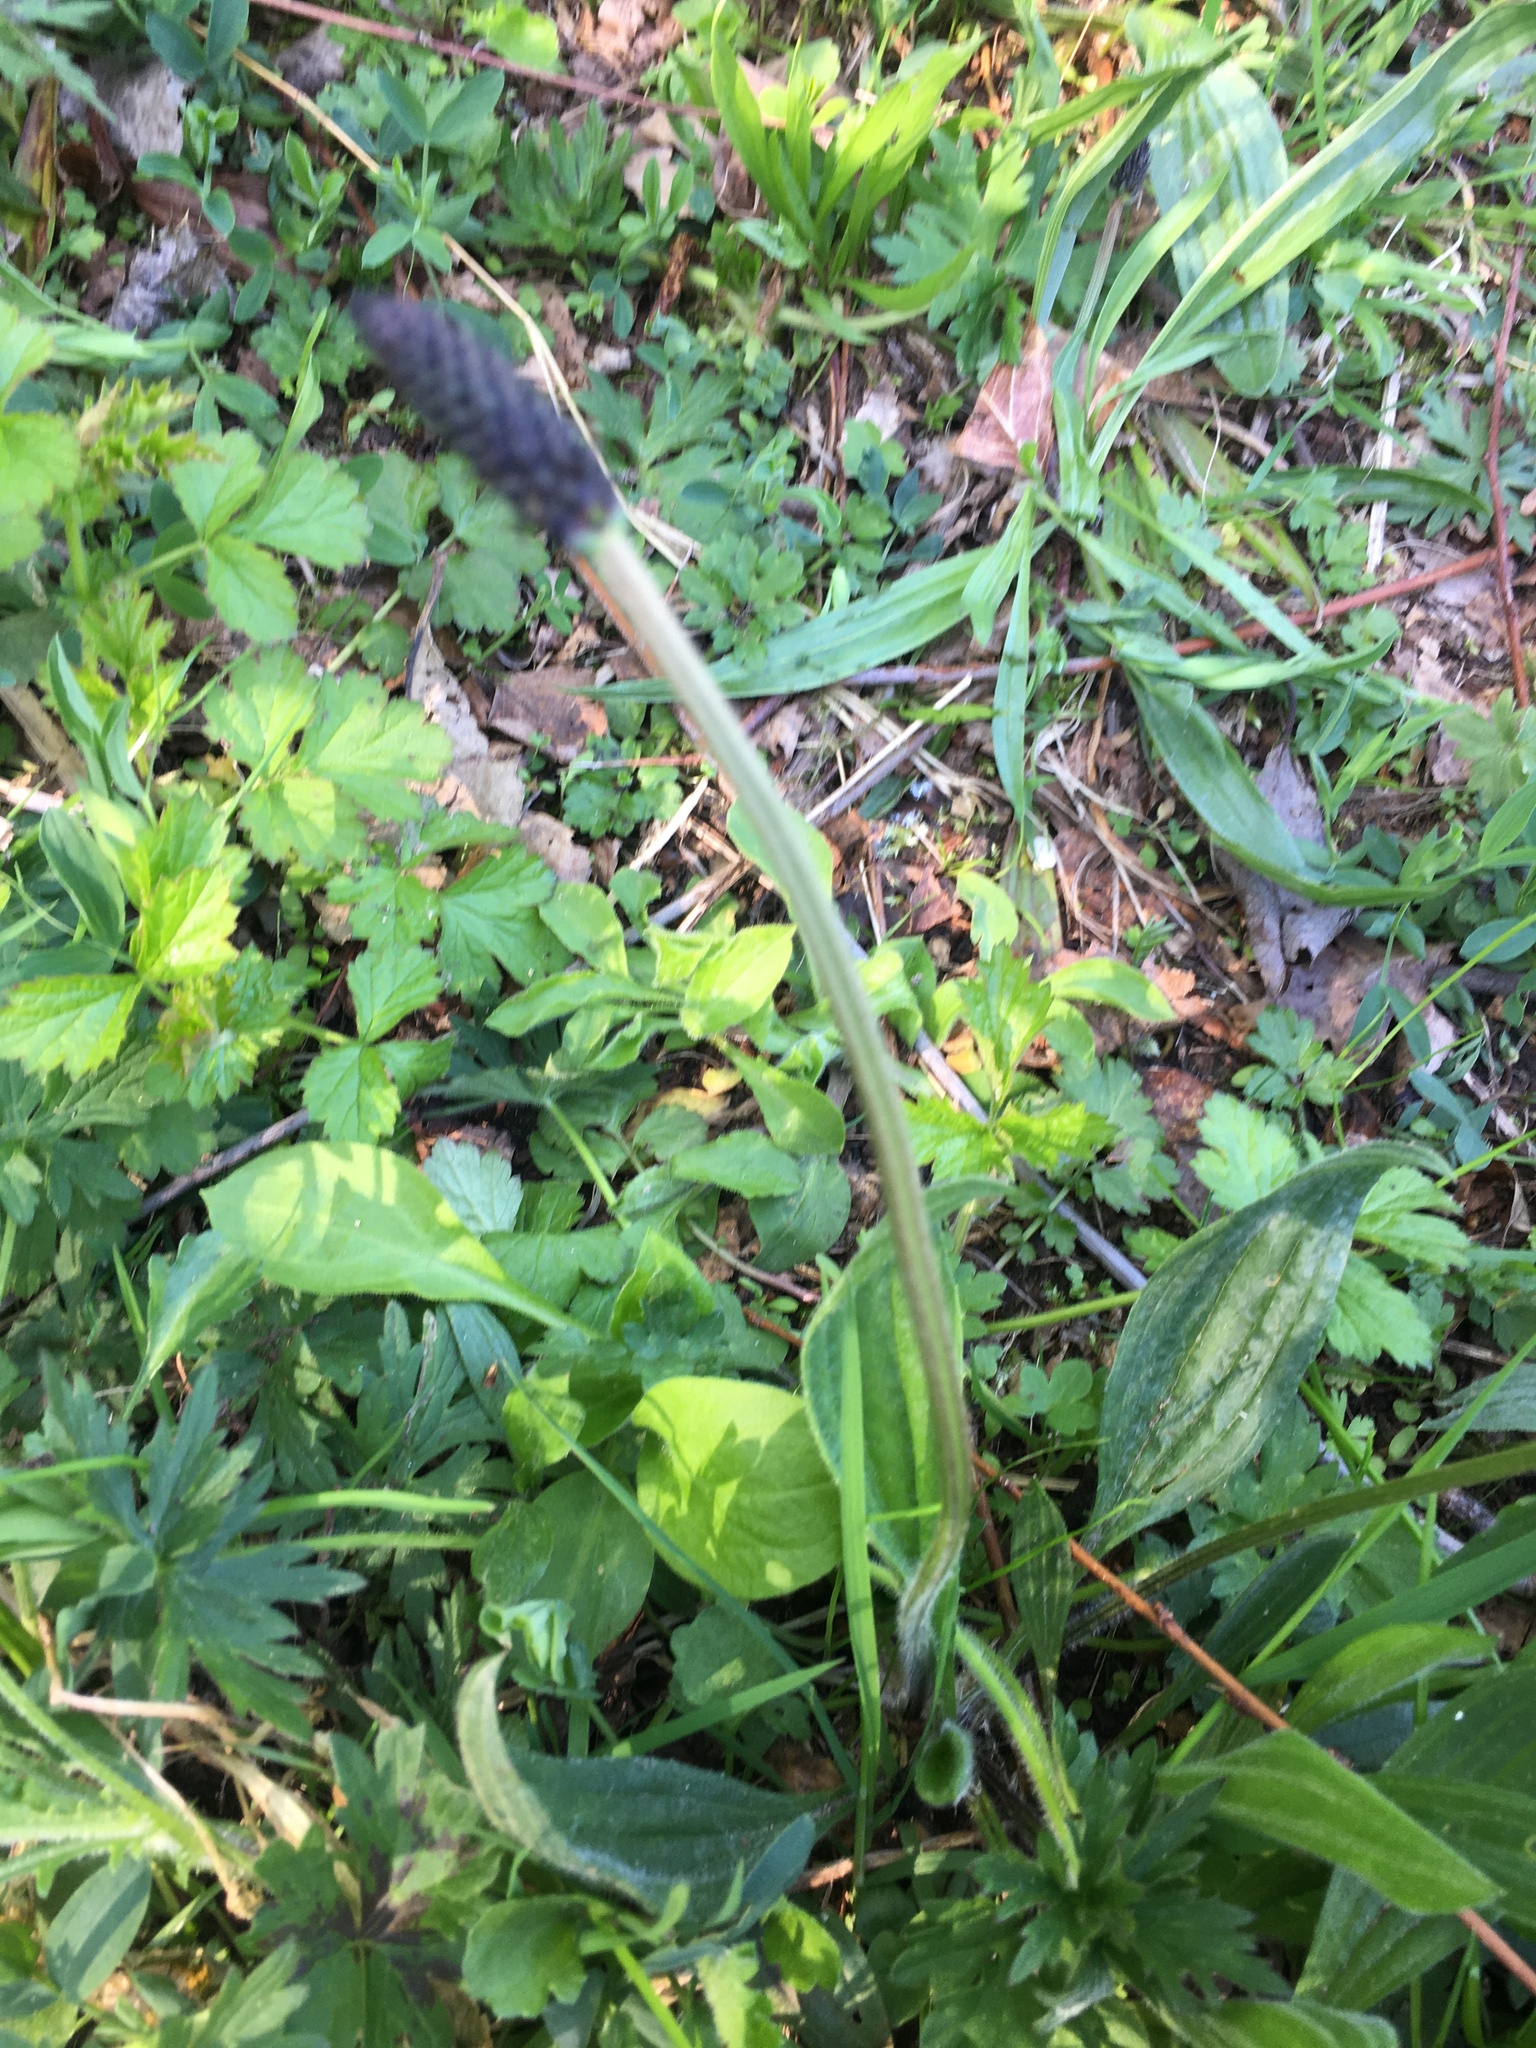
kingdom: Plantae
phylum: Tracheophyta
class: Magnoliopsida
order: Lamiales
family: Plantaginaceae
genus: Plantago
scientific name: Plantago lanceolata
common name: Ribwort plantain
